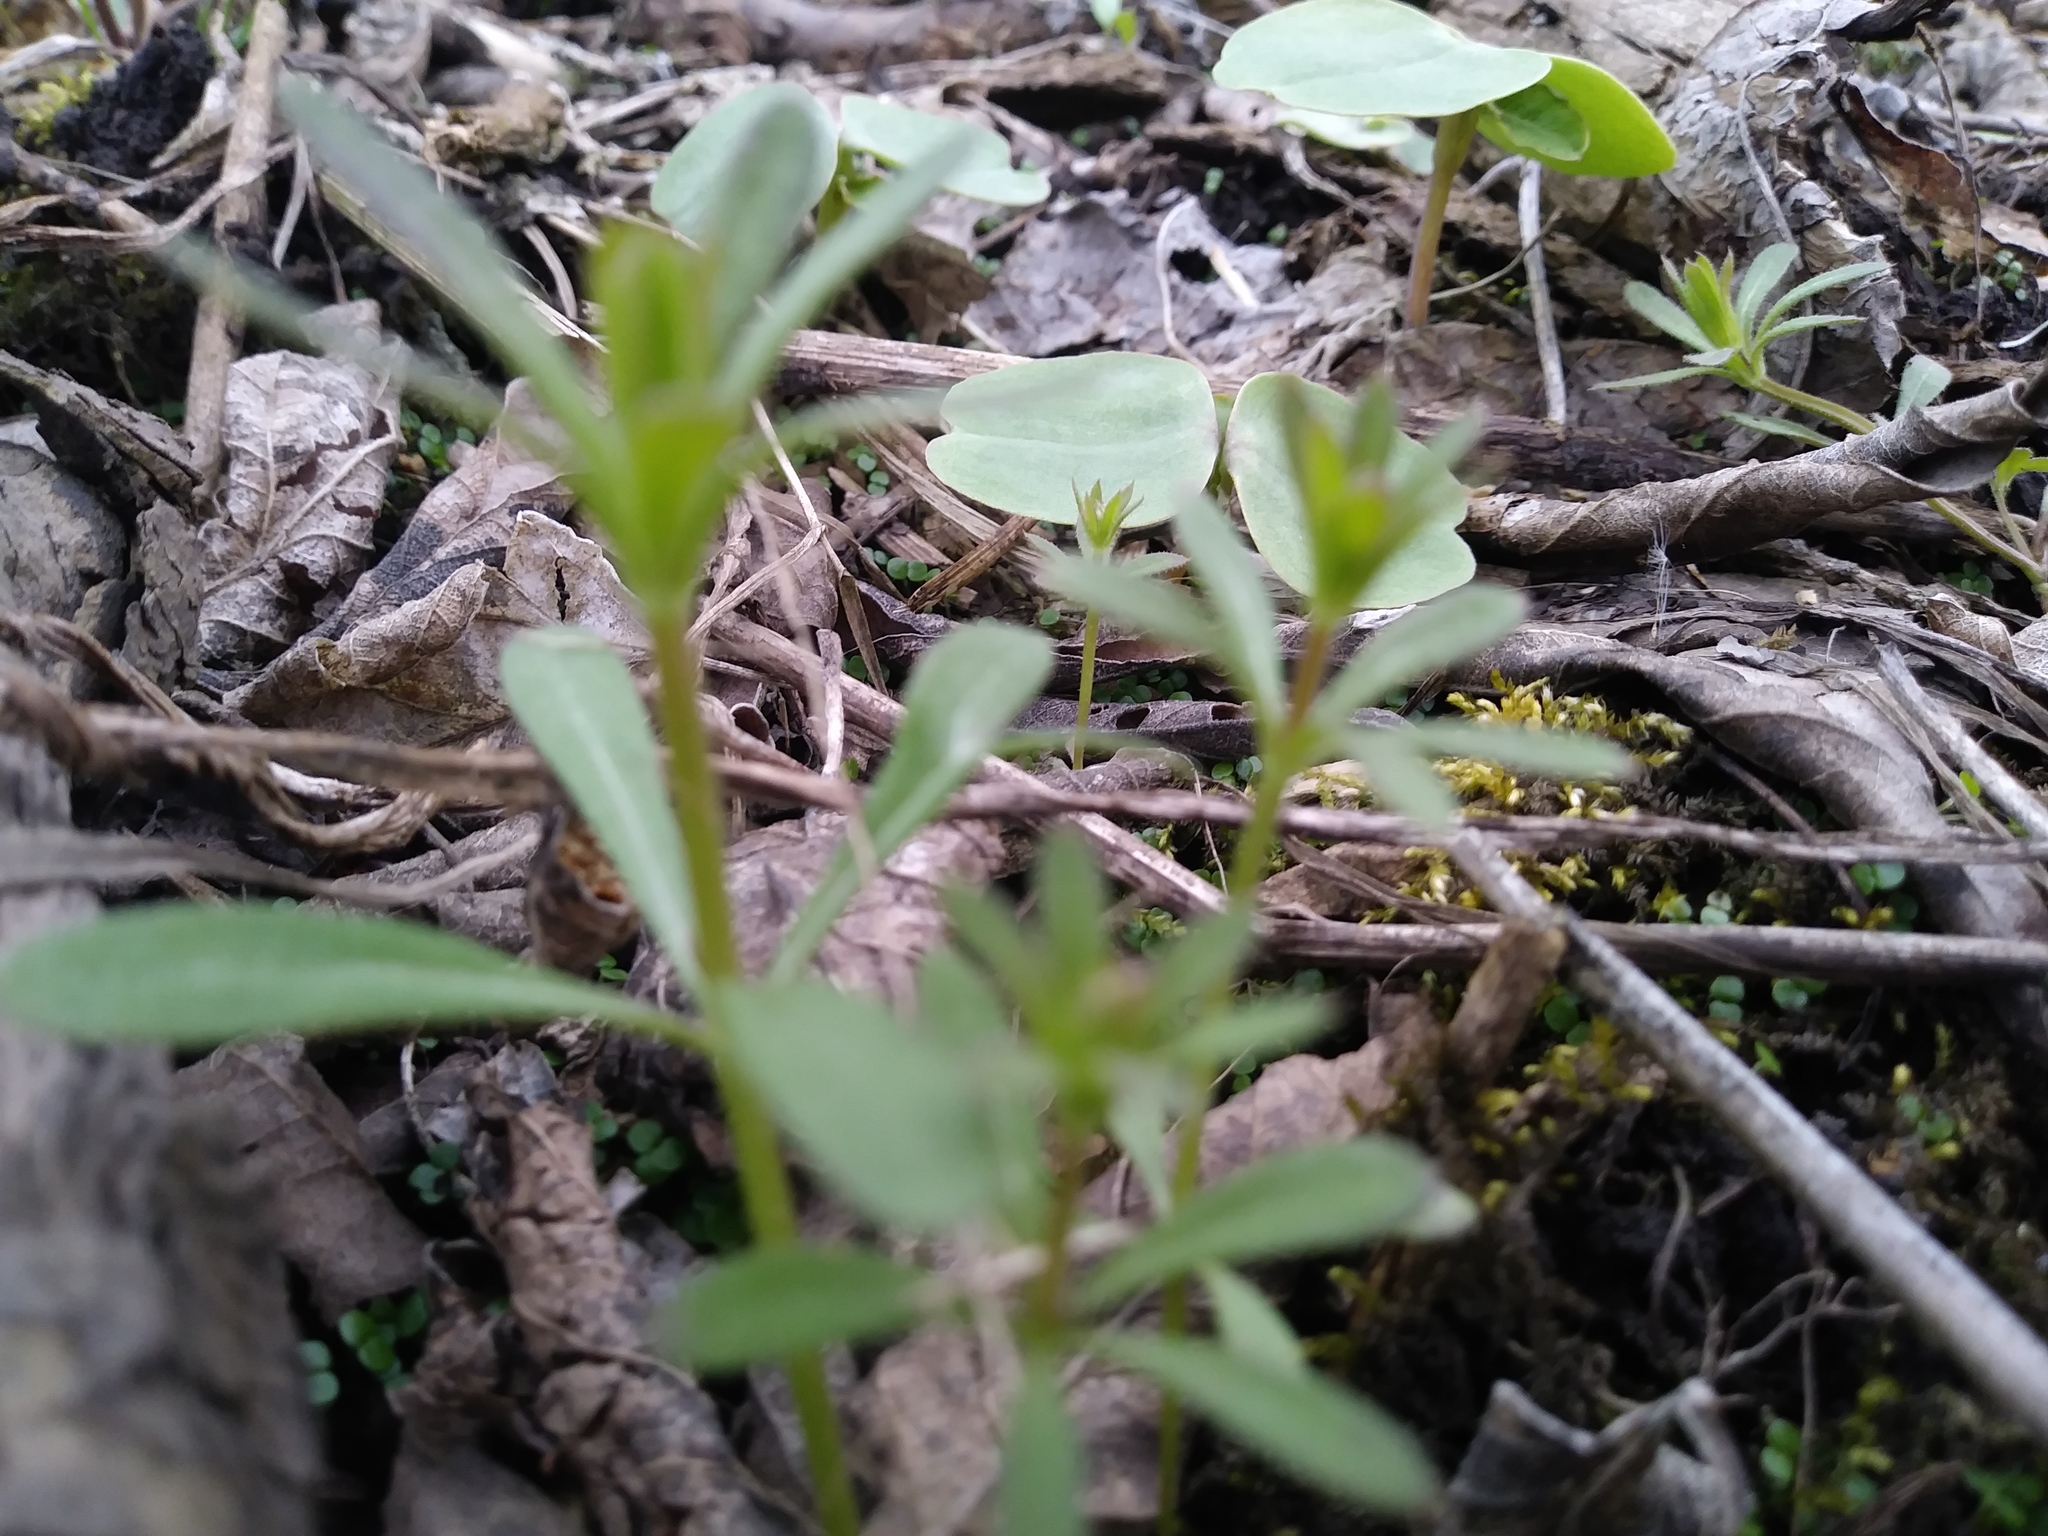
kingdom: Plantae
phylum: Tracheophyta
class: Magnoliopsida
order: Gentianales
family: Rubiaceae
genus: Galium
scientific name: Galium aparine
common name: Cleavers
